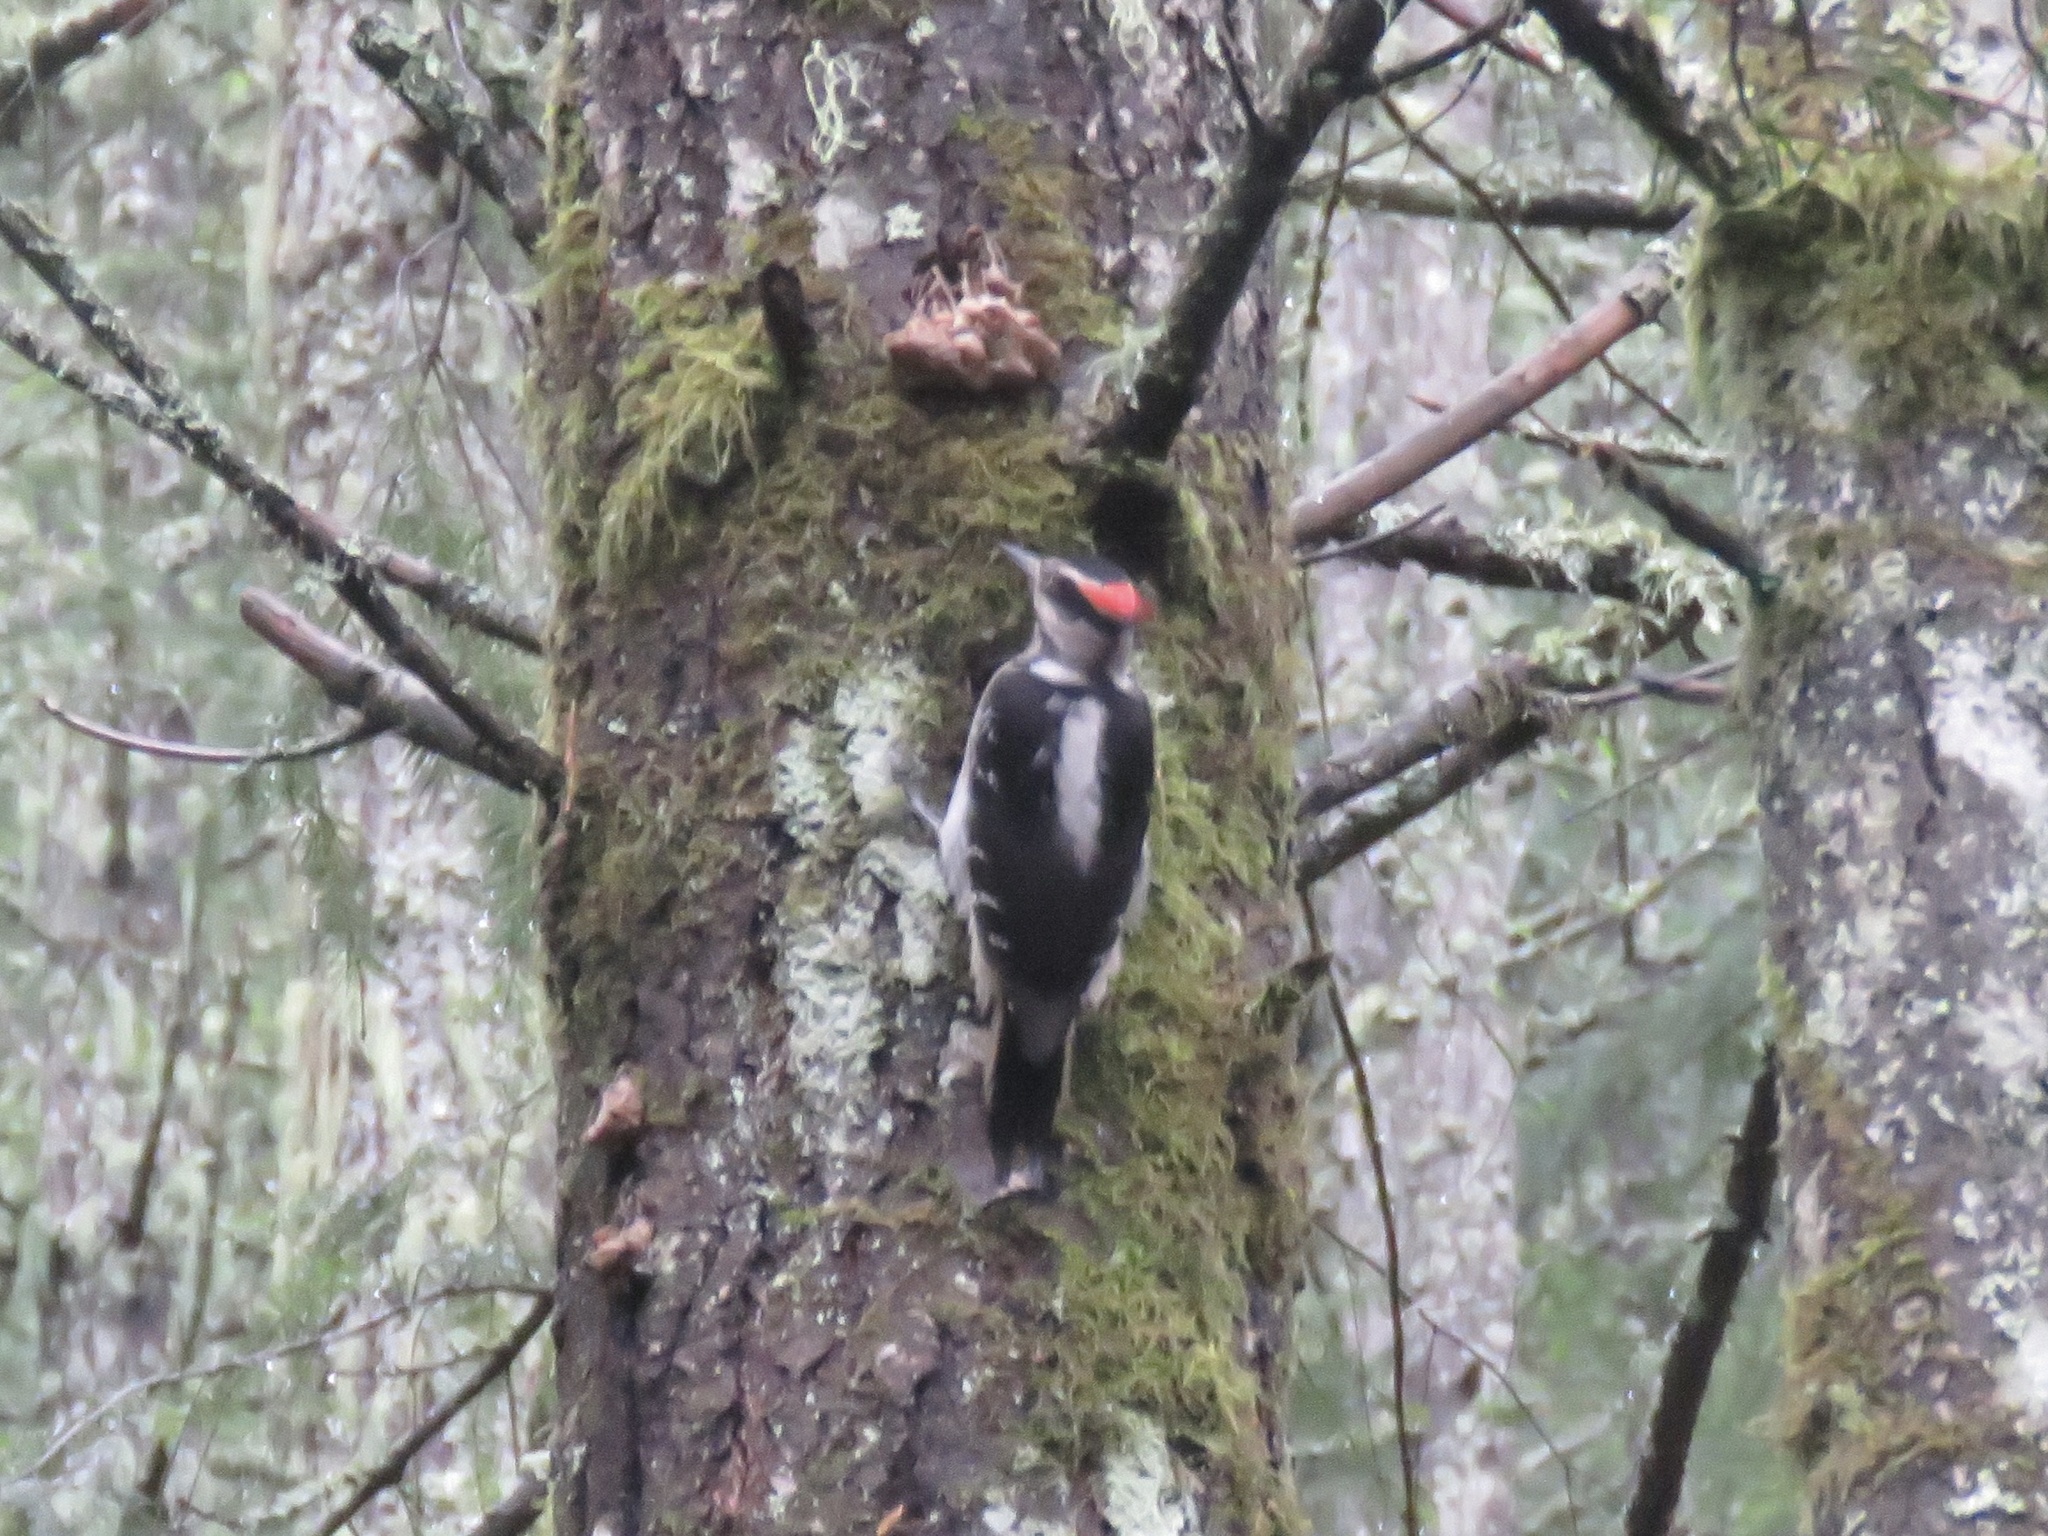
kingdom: Animalia
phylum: Chordata
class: Aves
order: Piciformes
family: Picidae
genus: Leuconotopicus
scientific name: Leuconotopicus villosus
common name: Hairy woodpecker
